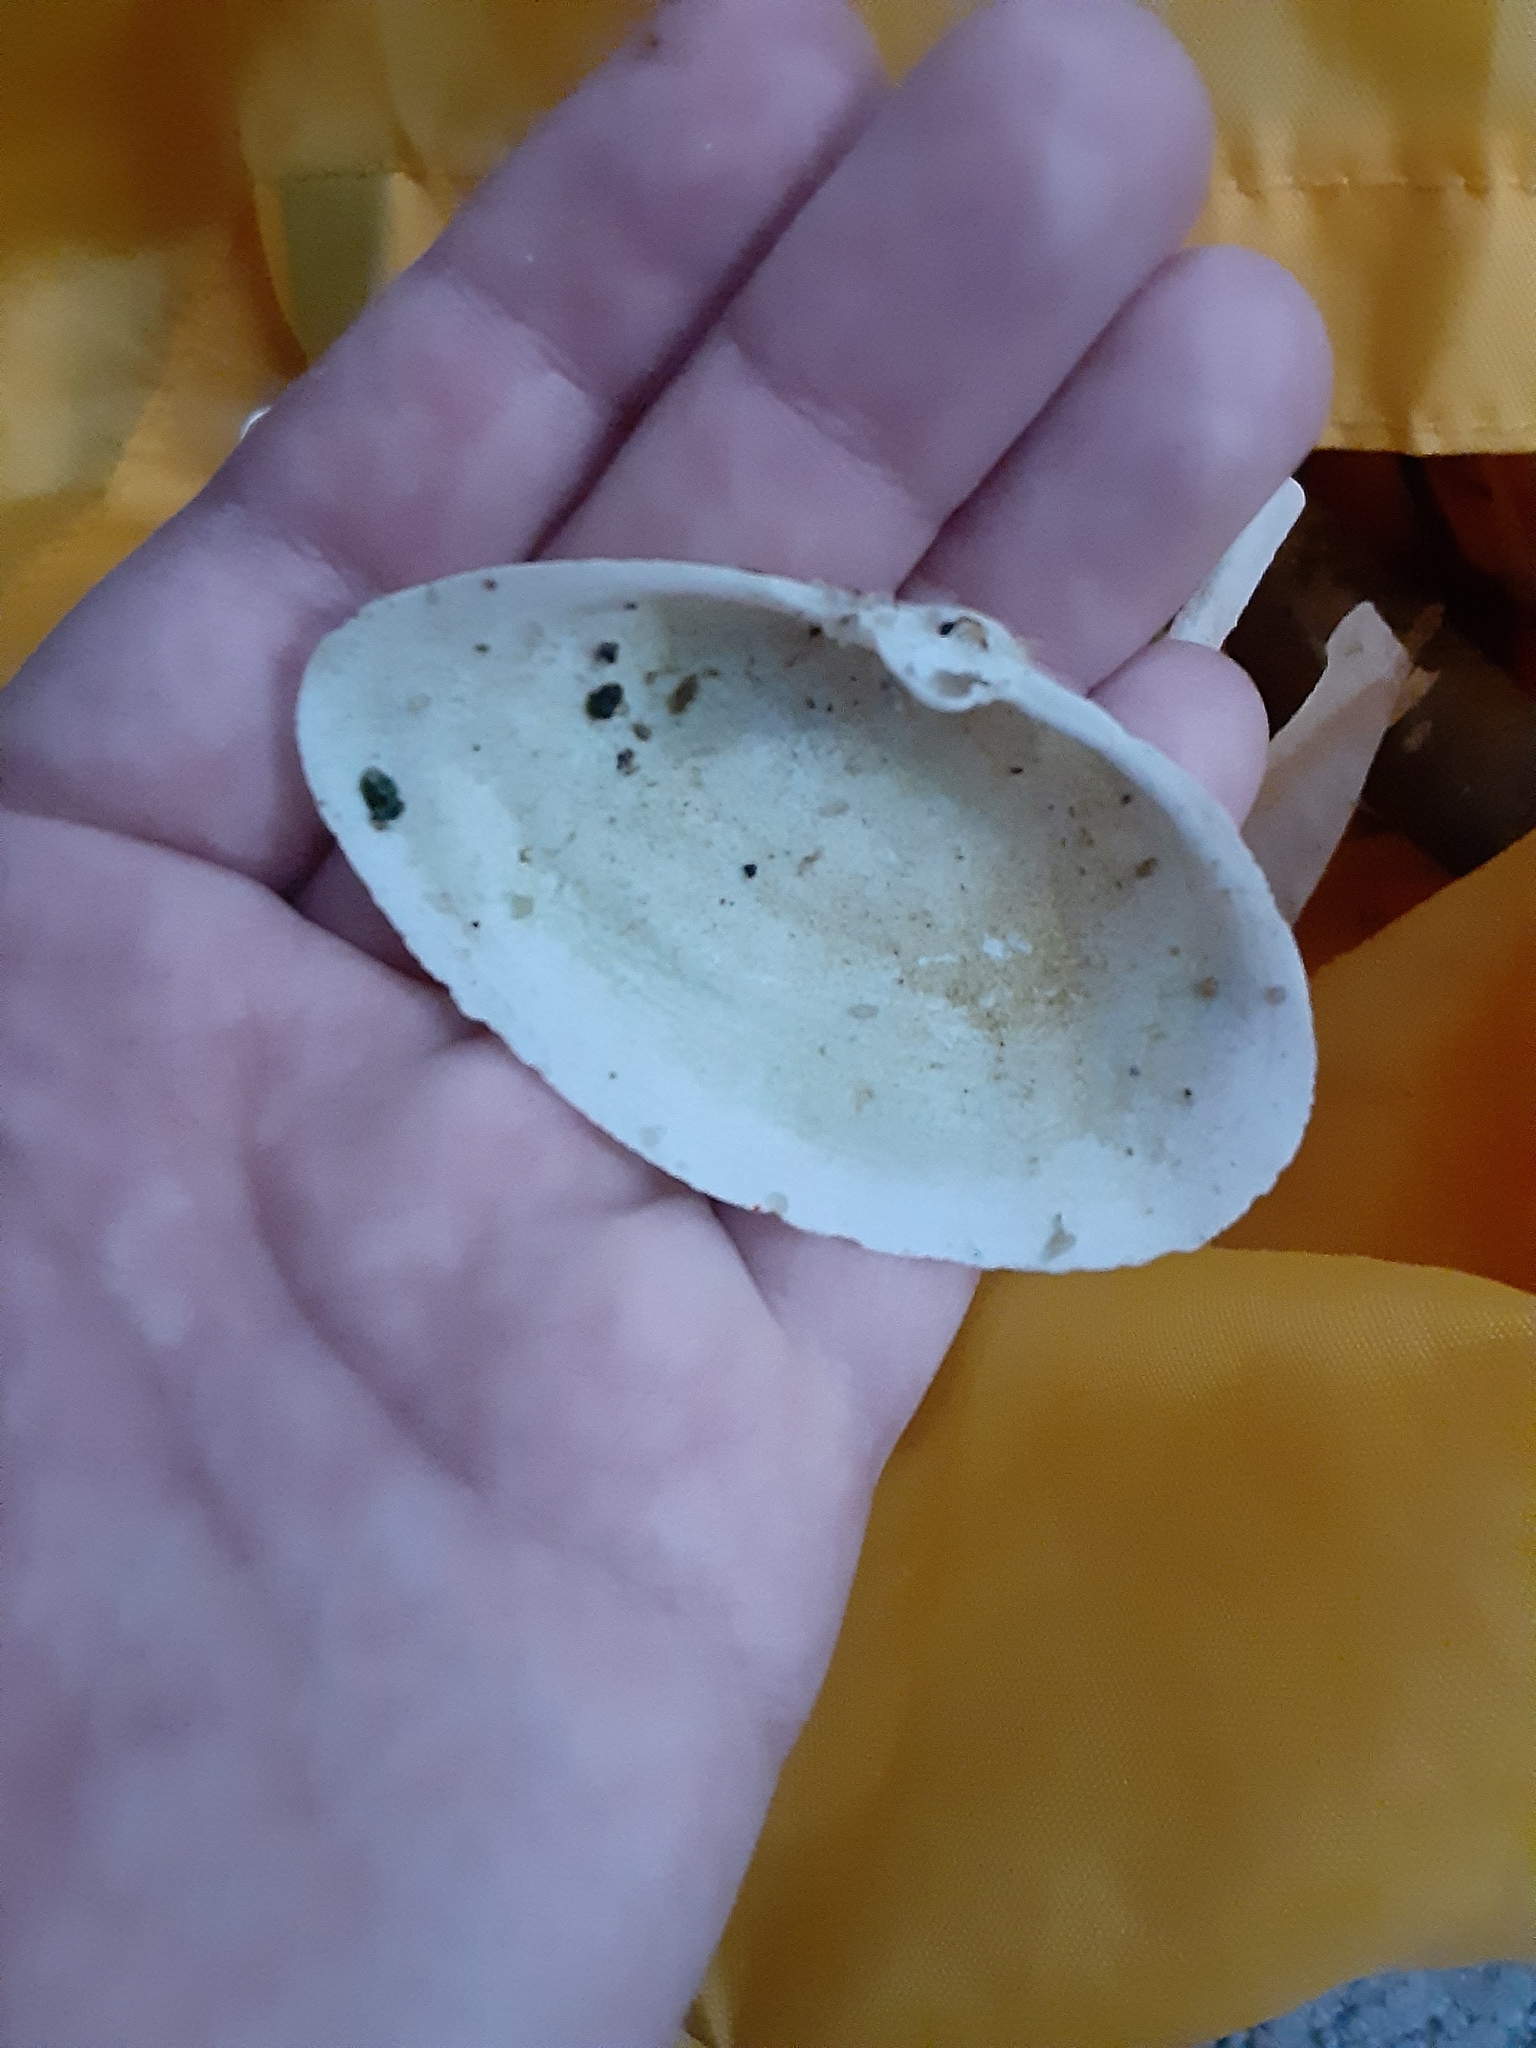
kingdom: Animalia
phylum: Mollusca
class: Bivalvia
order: Myida
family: Myidae
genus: Mya
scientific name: Mya arenaria
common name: Soft-shelled clam
